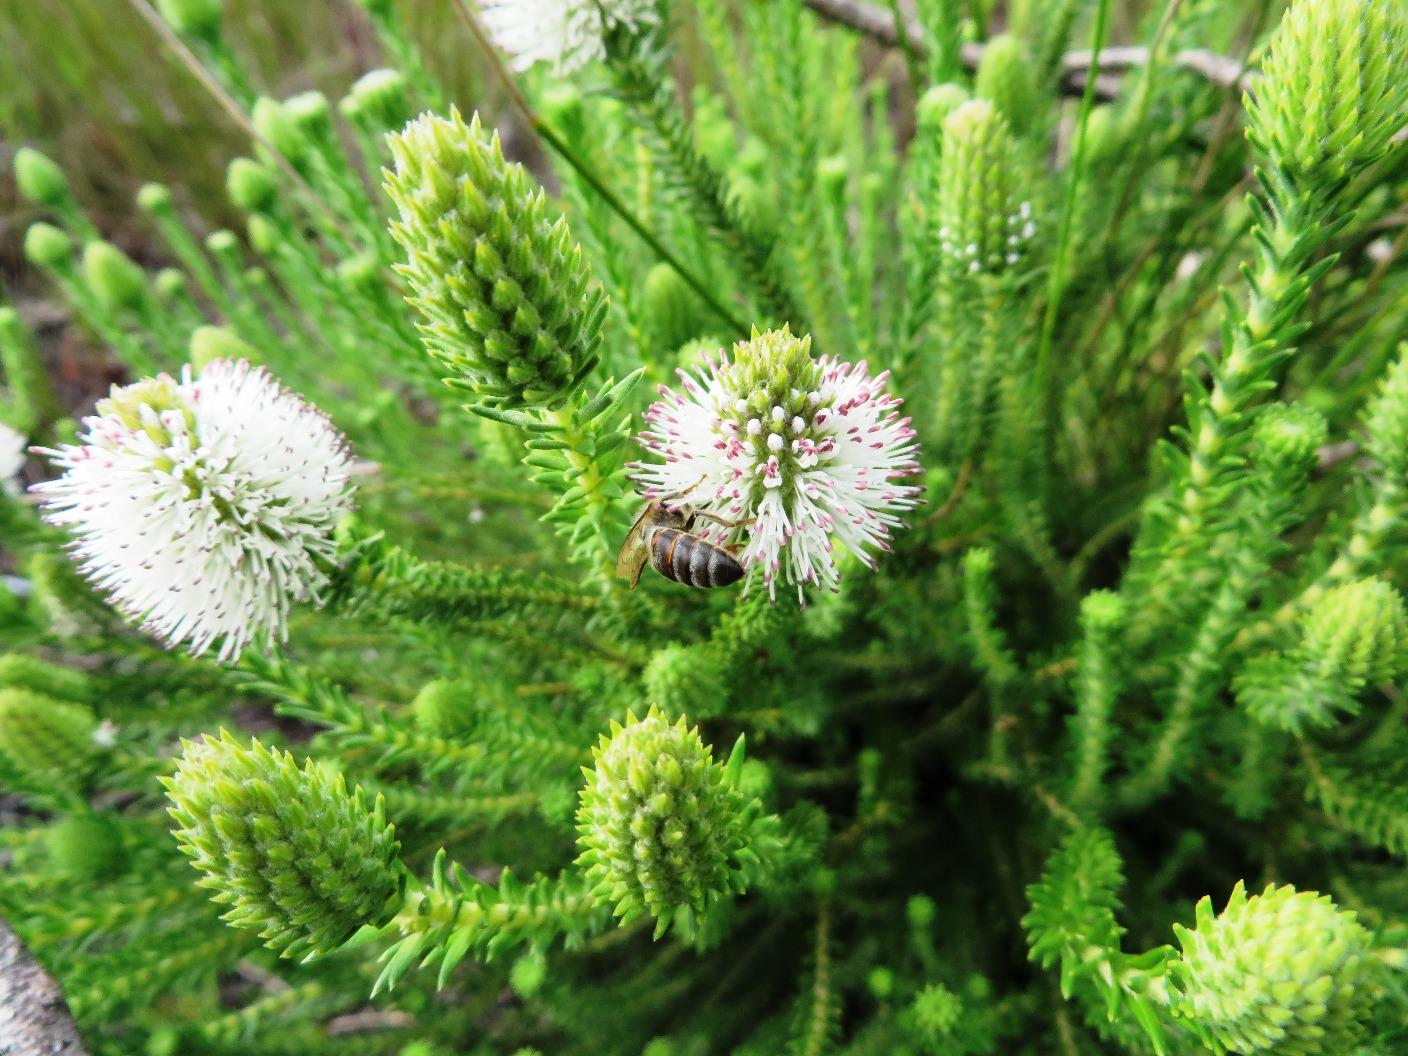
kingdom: Plantae
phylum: Tracheophyta
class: Magnoliopsida
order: Lamiales
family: Stilbaceae
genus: Stilbe
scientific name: Stilbe albiflora
